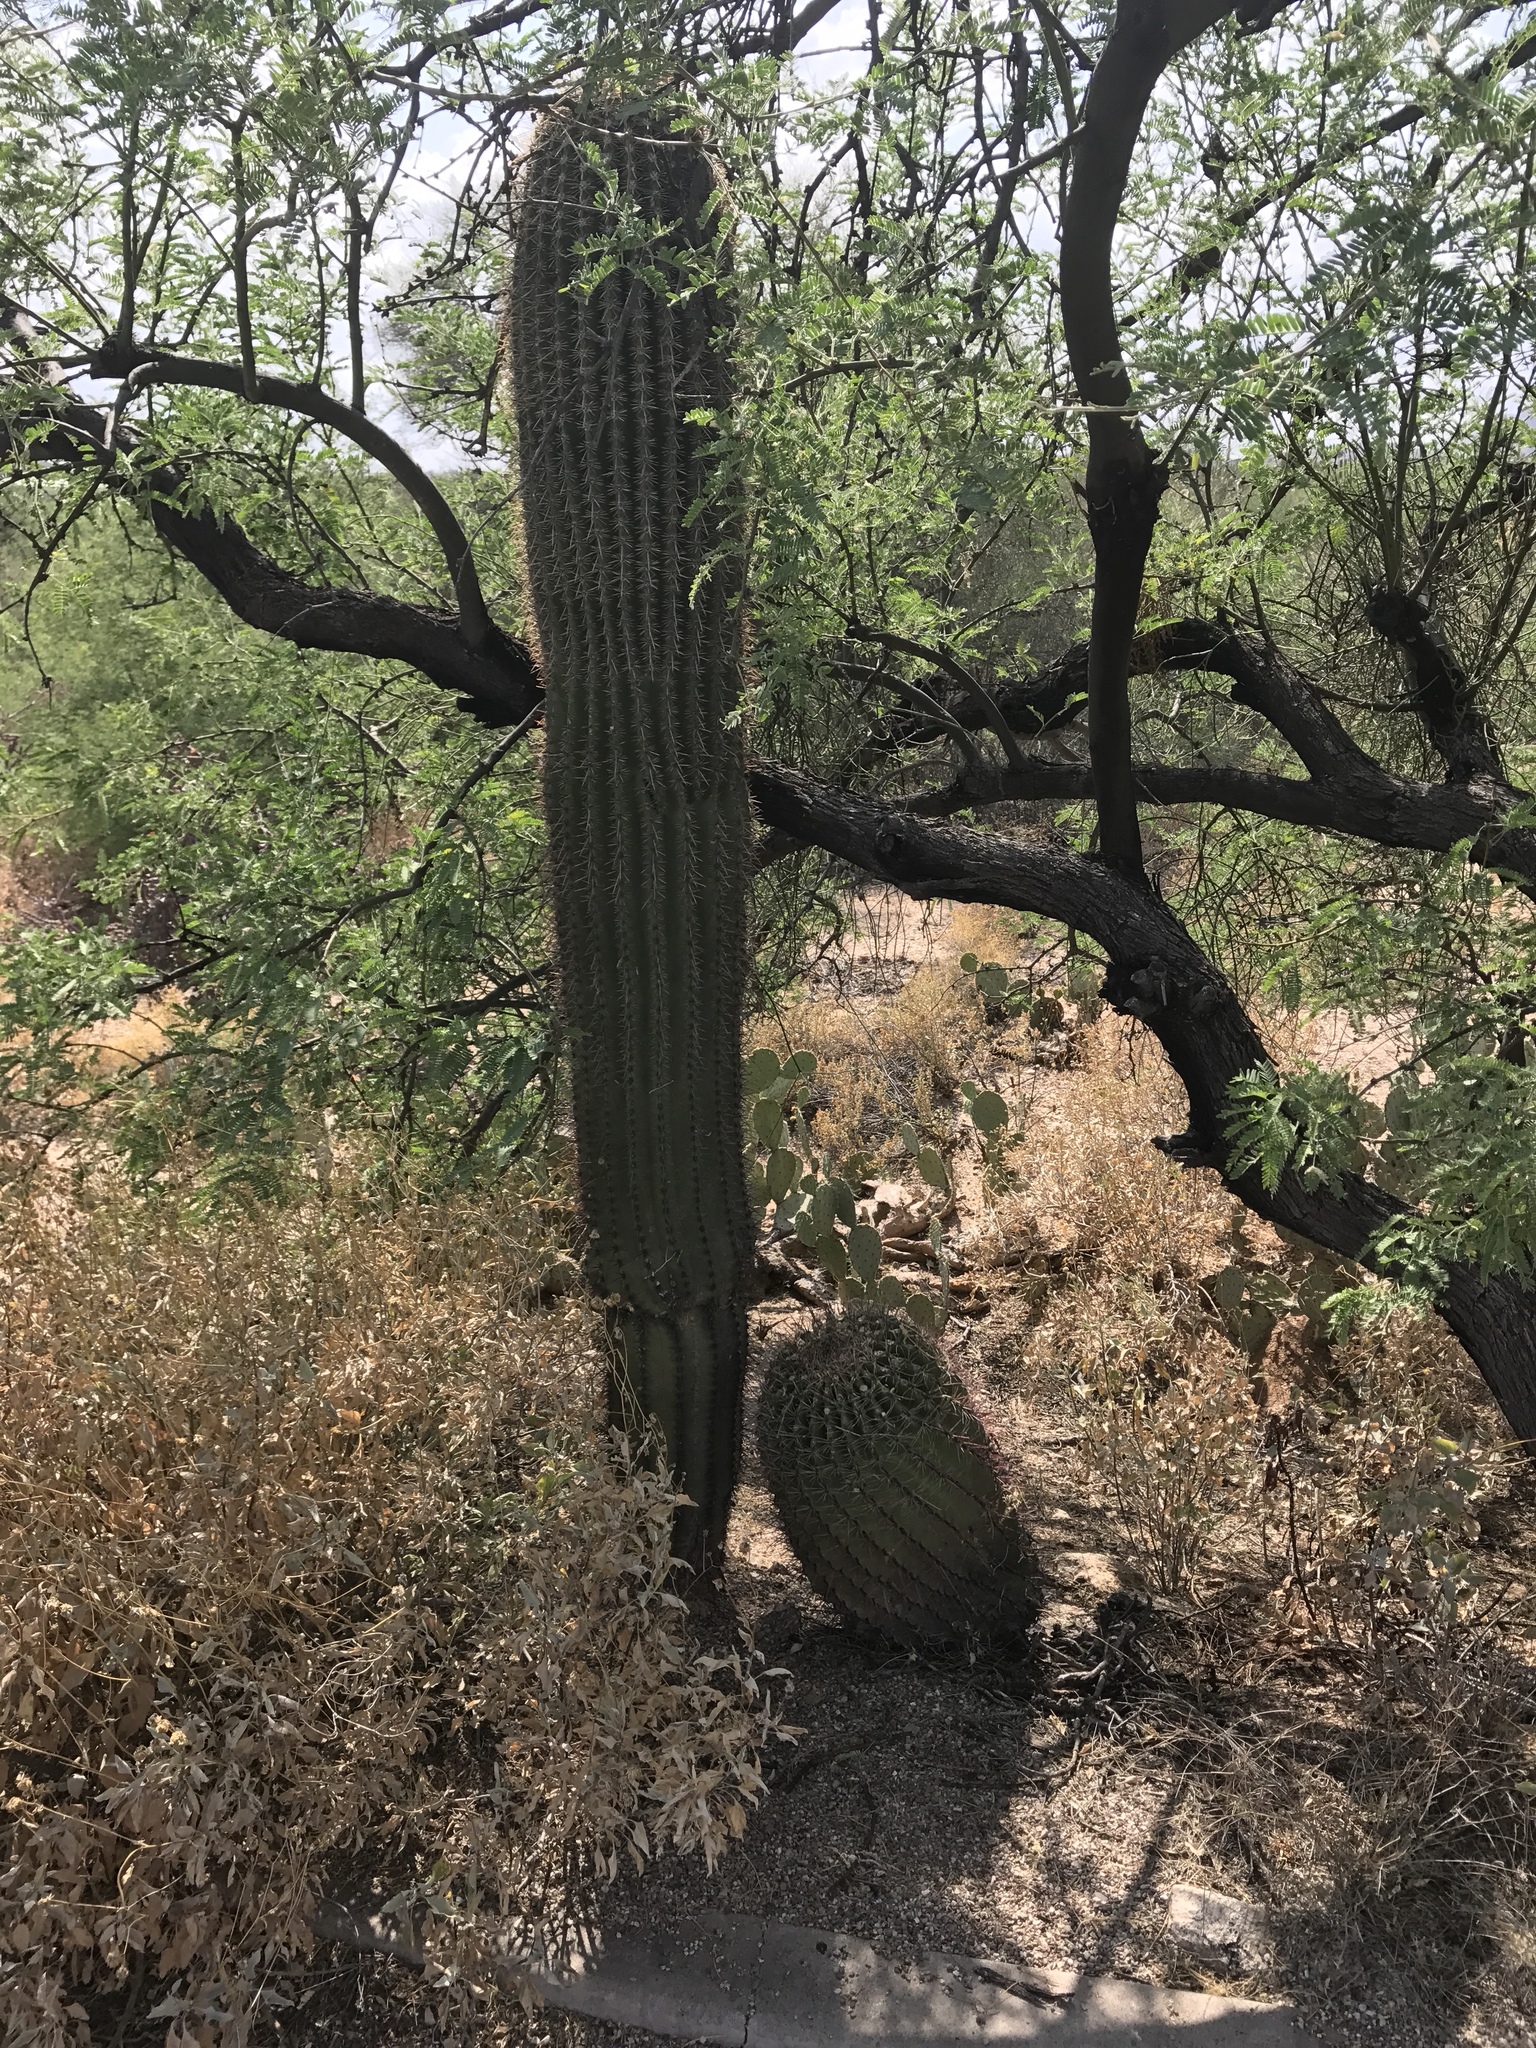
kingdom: Plantae
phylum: Tracheophyta
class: Magnoliopsida
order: Caryophyllales
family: Cactaceae
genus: Carnegiea
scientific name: Carnegiea gigantea
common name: Saguaro
